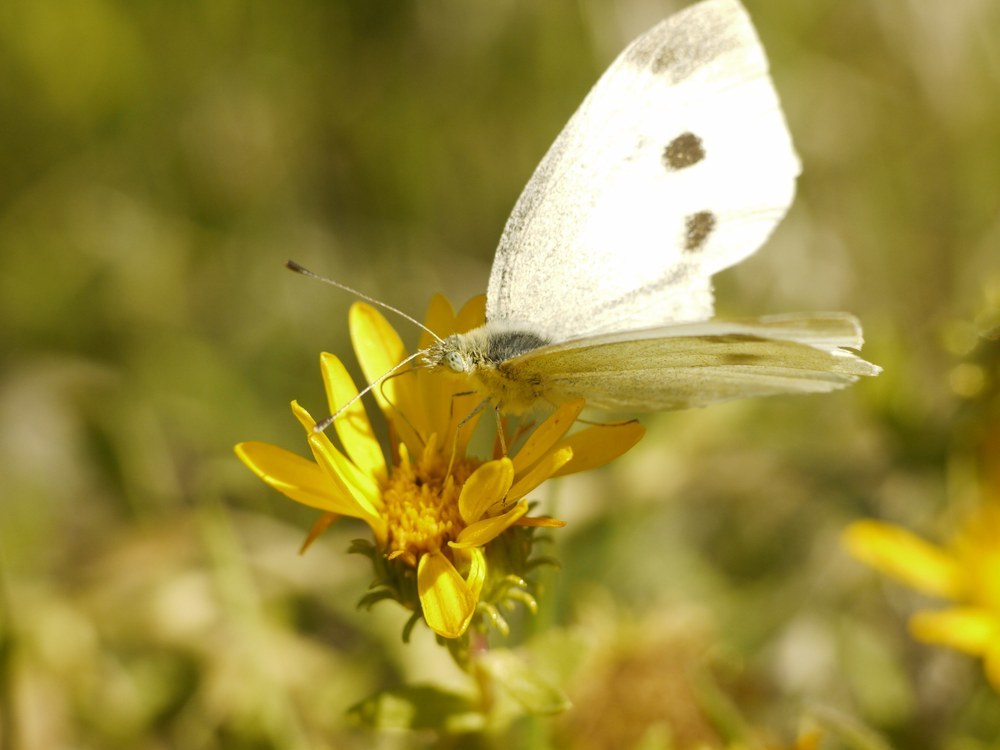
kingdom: Animalia
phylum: Arthropoda
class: Insecta
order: Lepidoptera
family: Pieridae
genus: Pieris
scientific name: Pieris rapae
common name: Small white
